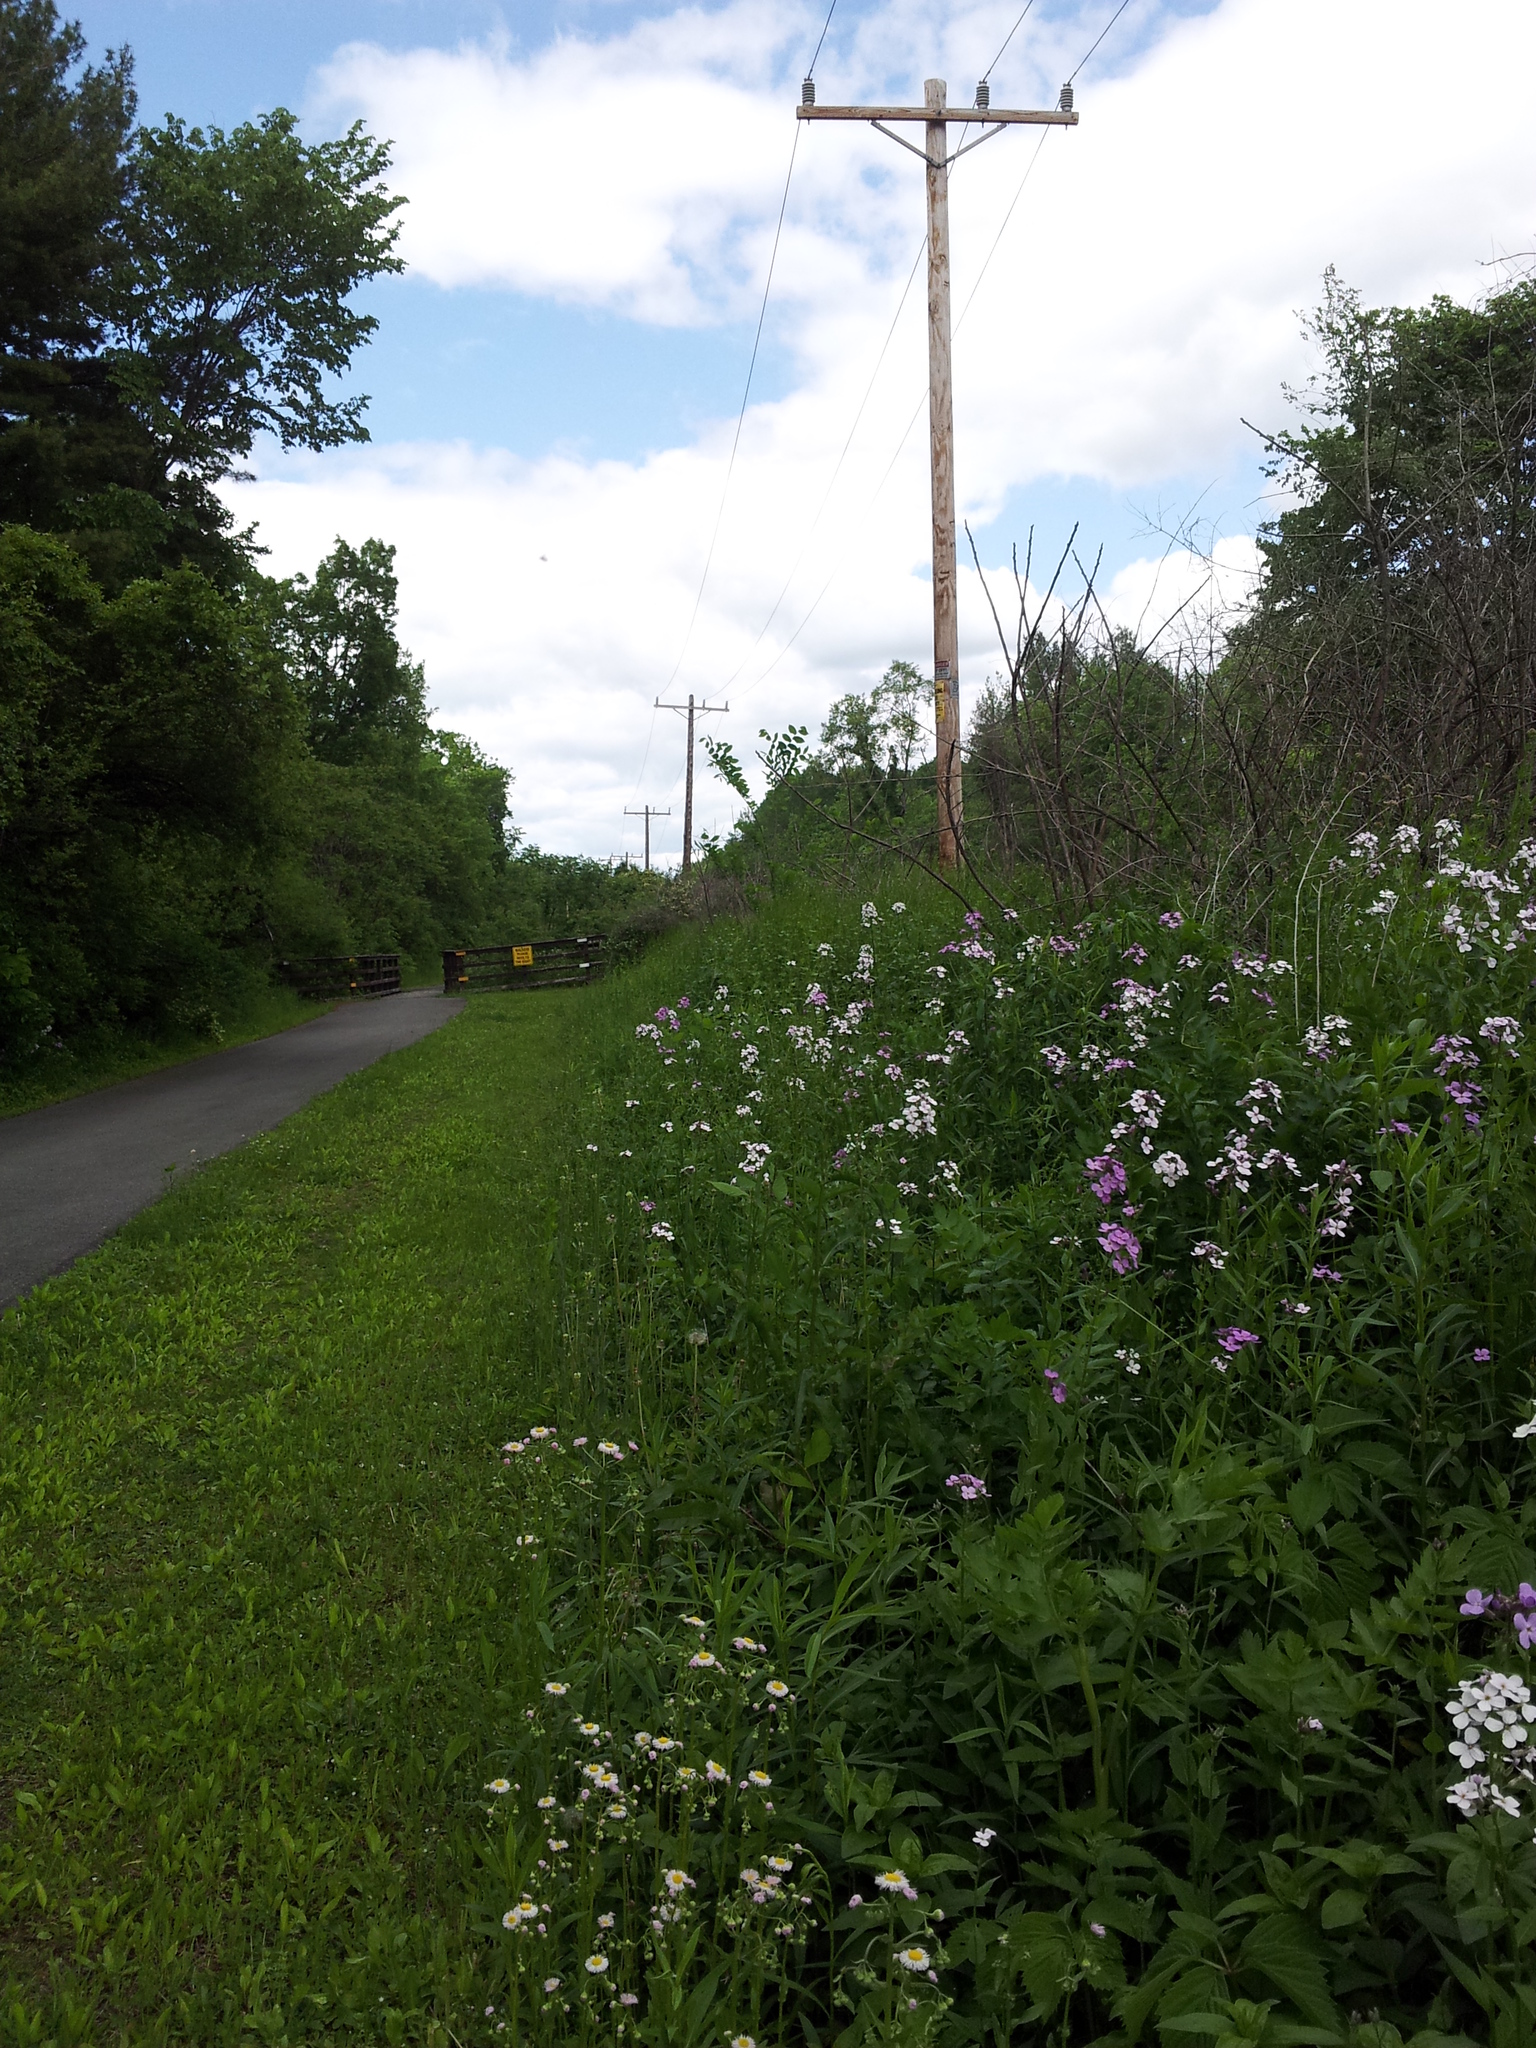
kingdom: Plantae
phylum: Tracheophyta
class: Magnoliopsida
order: Brassicales
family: Brassicaceae
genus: Hesperis
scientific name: Hesperis matronalis
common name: Dame's-violet
